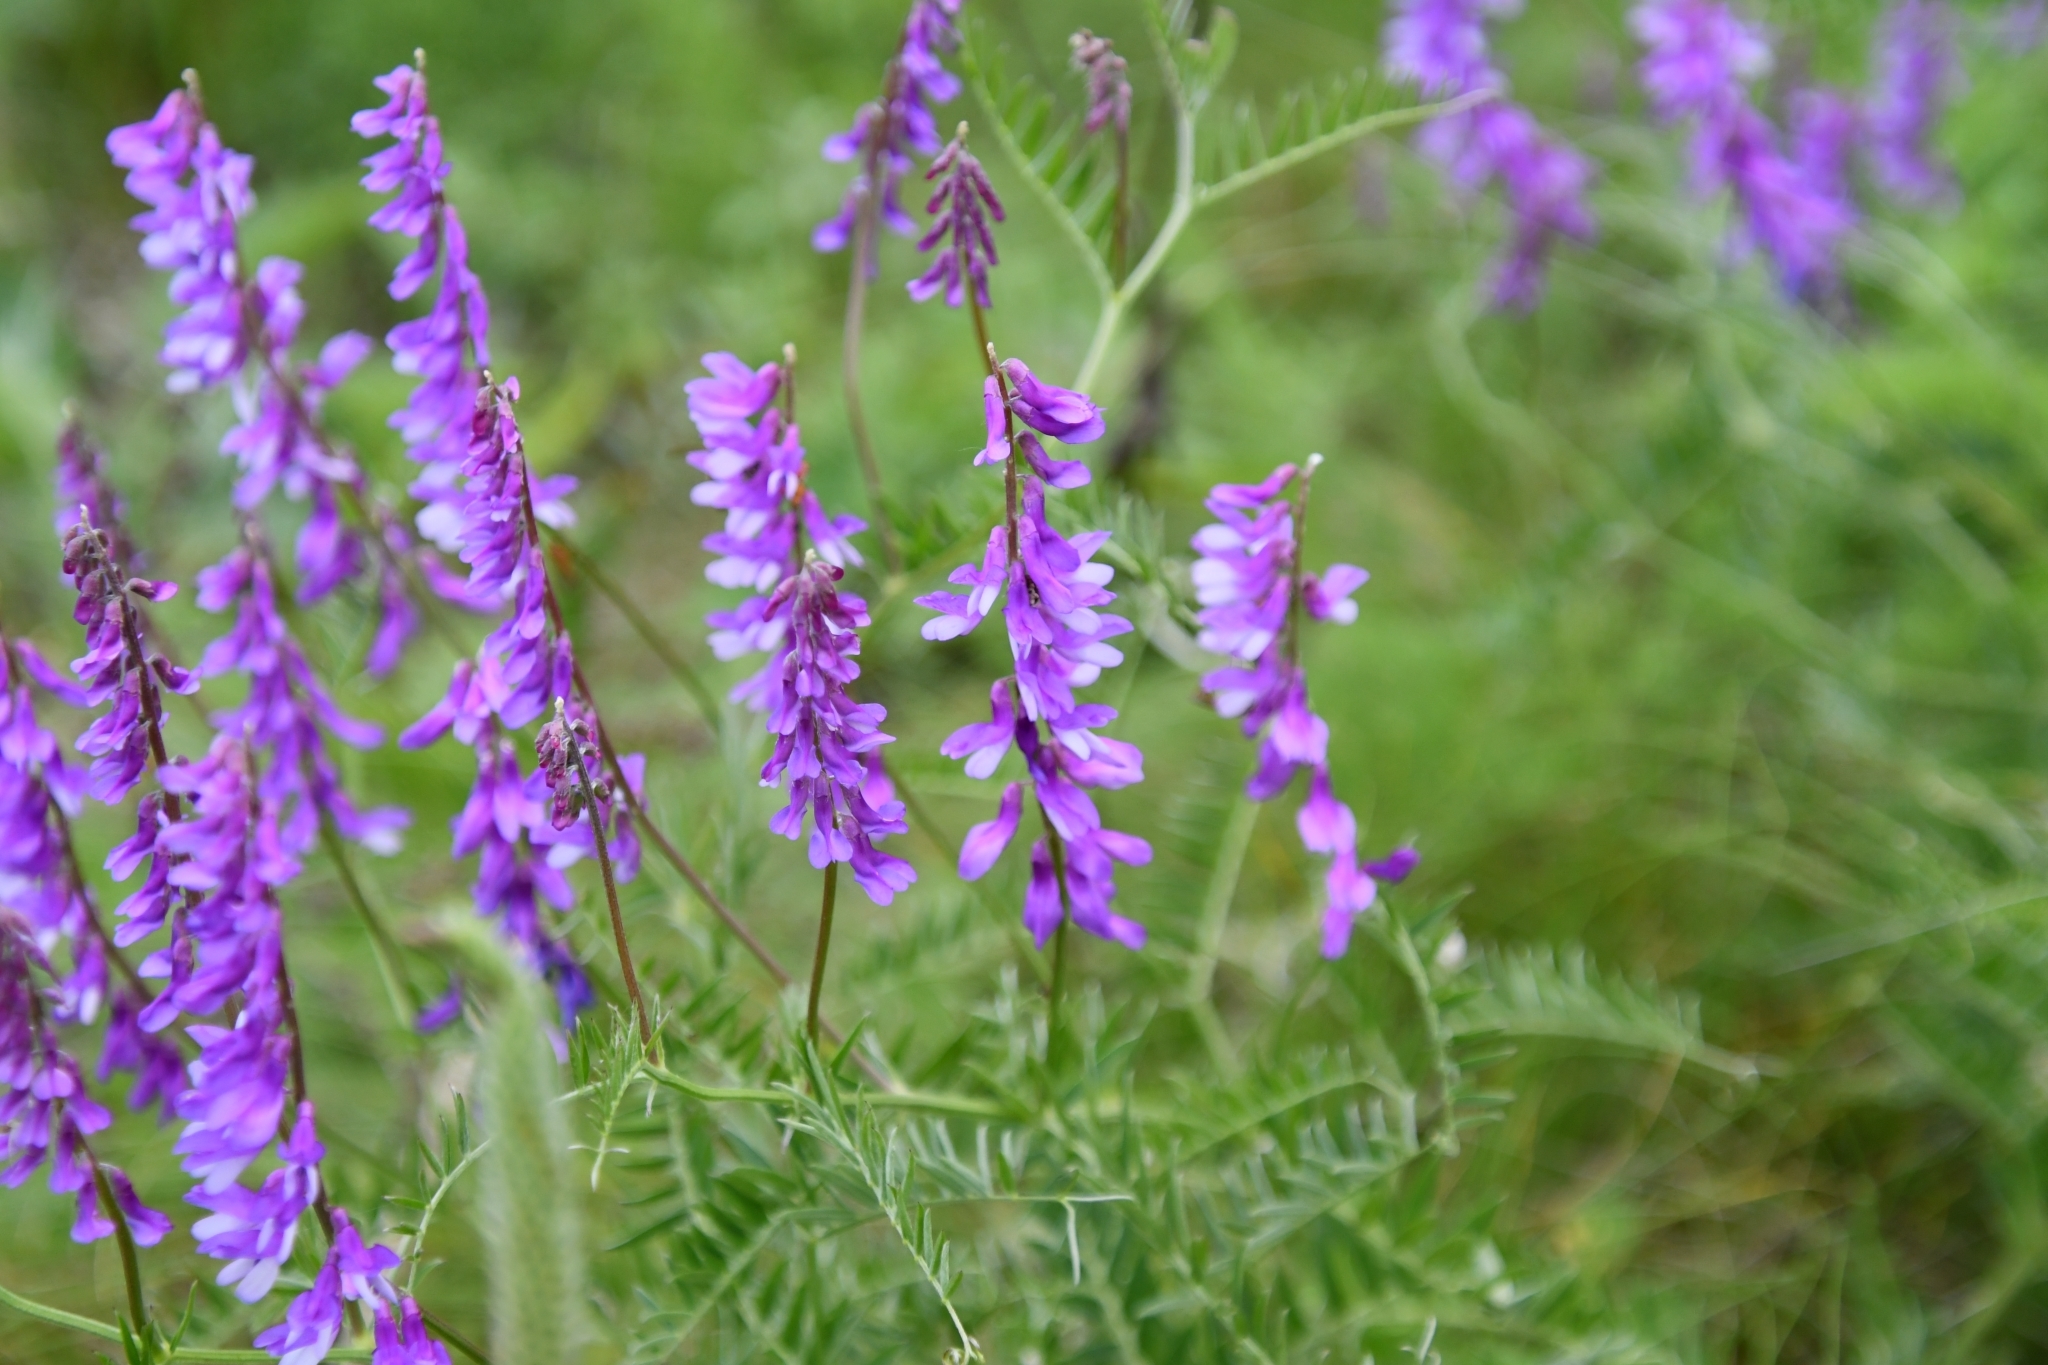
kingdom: Plantae
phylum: Tracheophyta
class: Magnoliopsida
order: Fabales
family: Fabaceae
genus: Vicia
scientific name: Vicia tenuifolia
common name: Fine-leaved vetch
